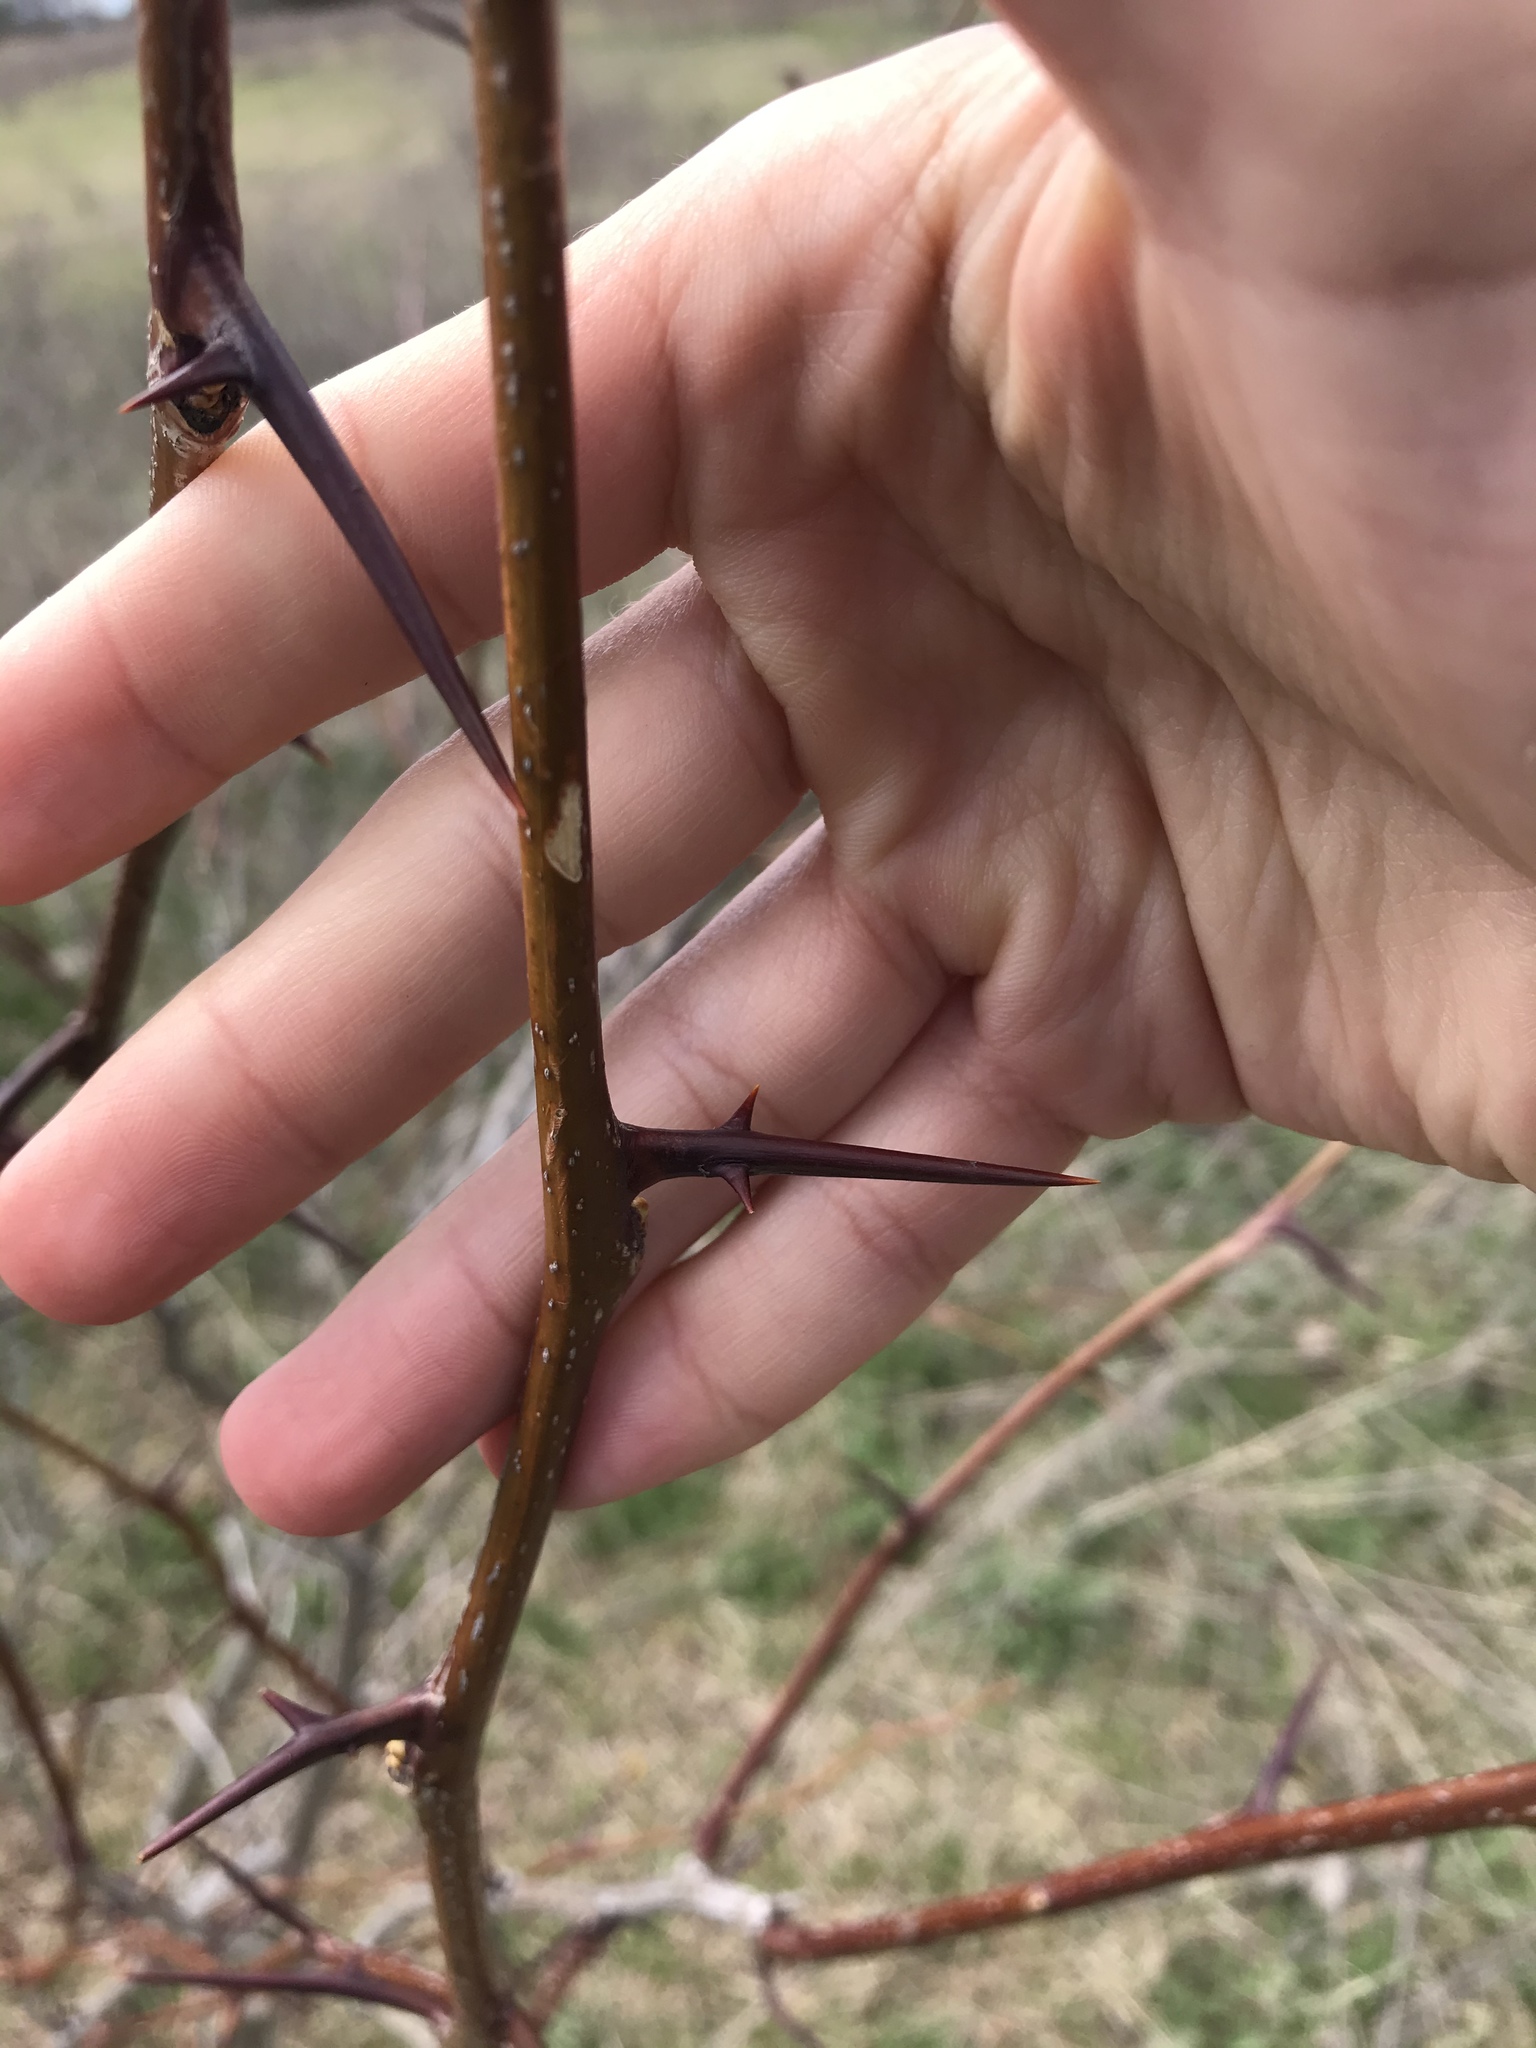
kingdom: Plantae
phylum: Tracheophyta
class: Magnoliopsida
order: Fabales
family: Fabaceae
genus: Gleditsia
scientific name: Gleditsia triacanthos
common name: Common honeylocust
